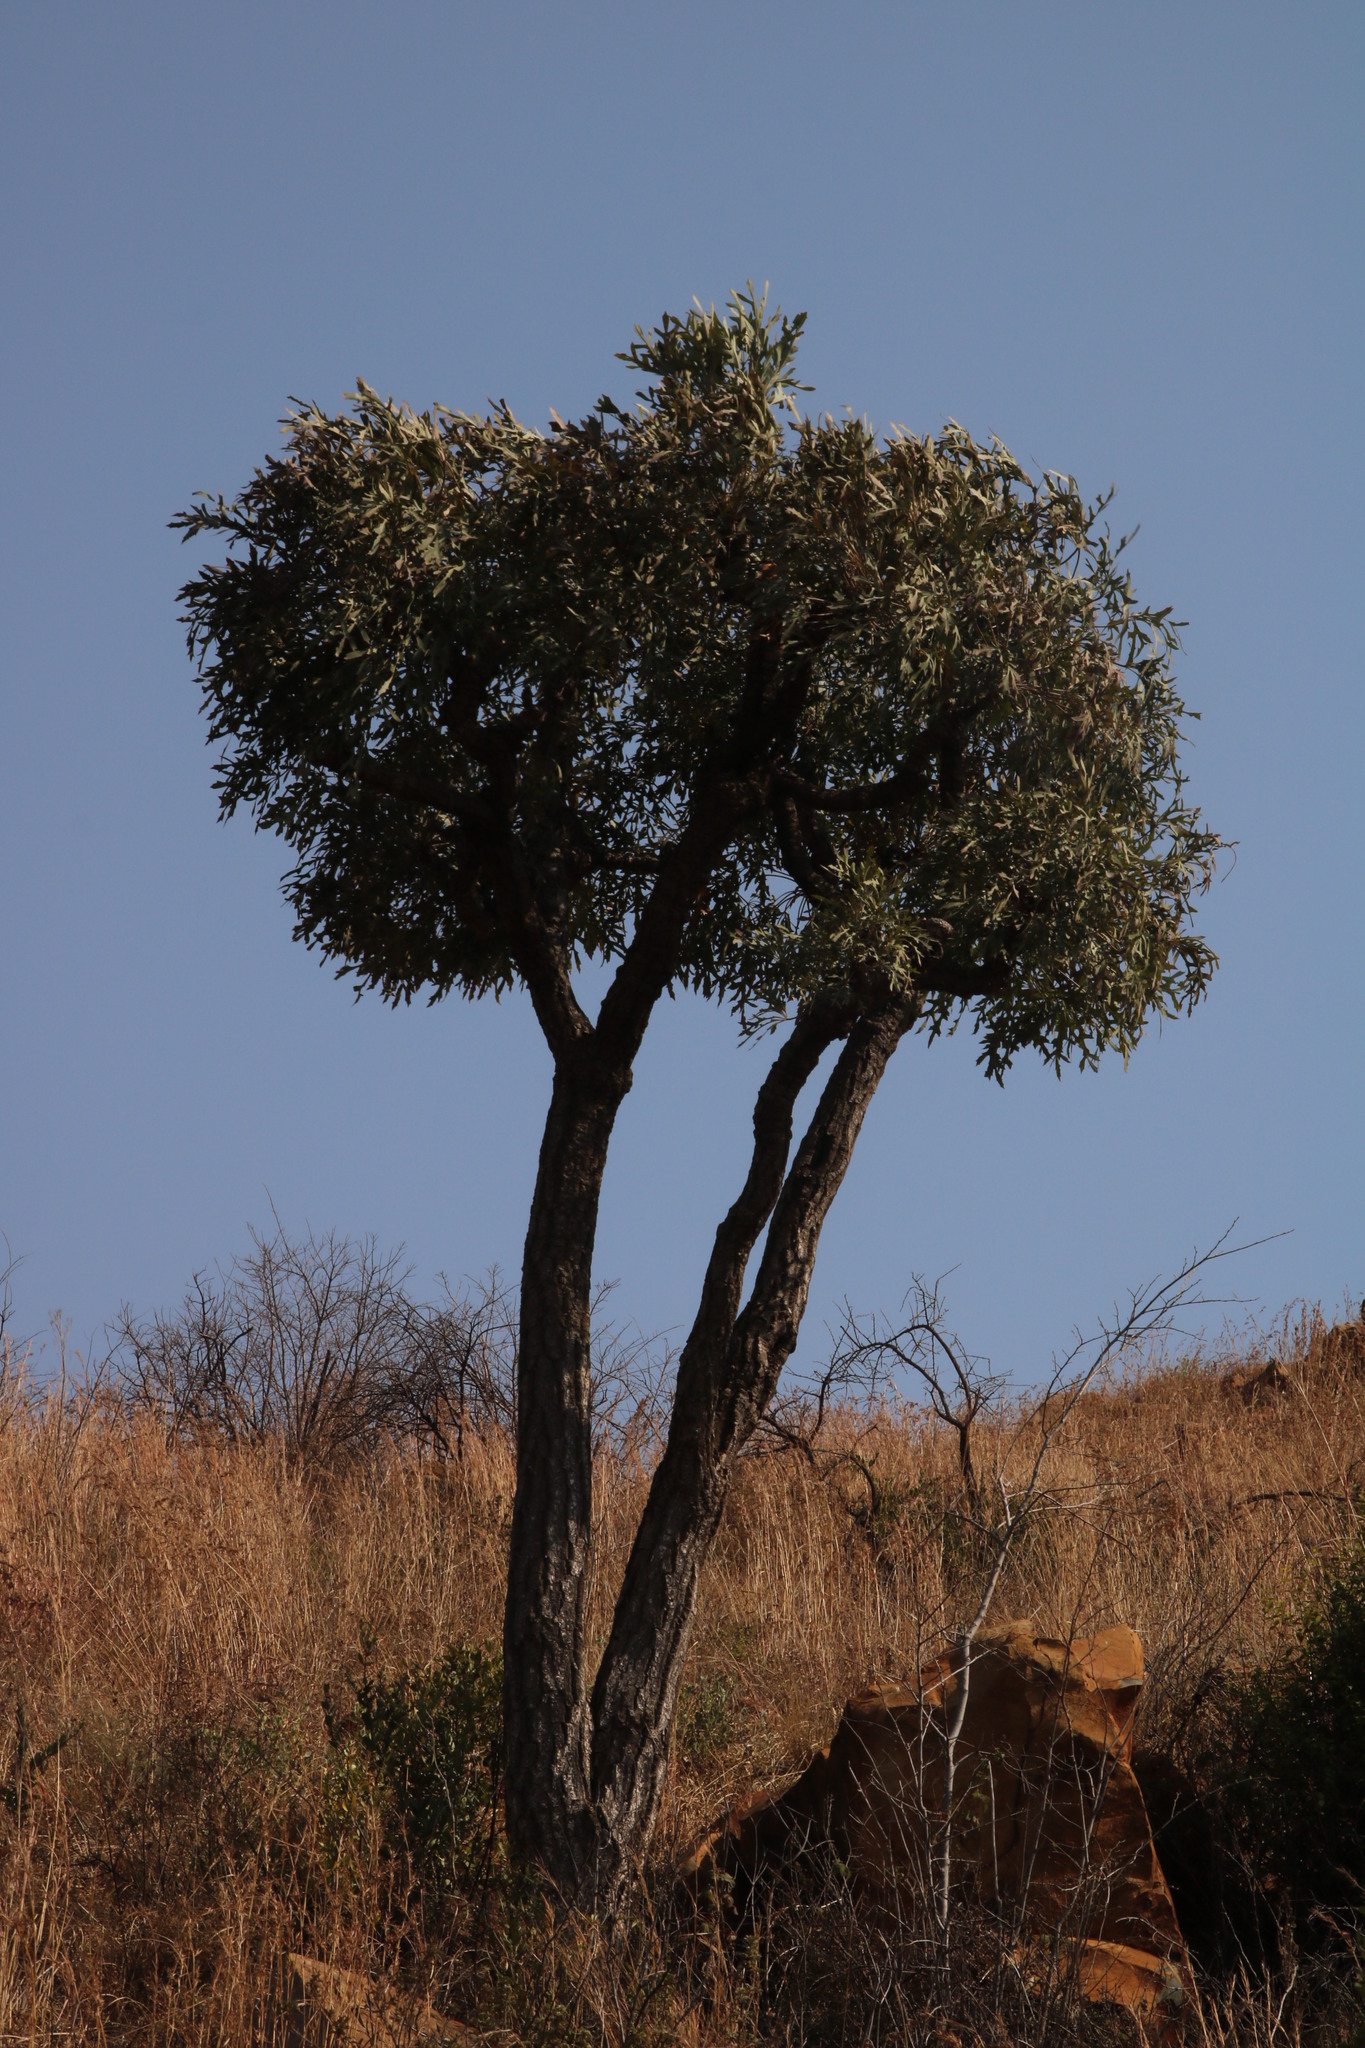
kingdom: Plantae
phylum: Tracheophyta
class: Magnoliopsida
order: Apiales
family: Araliaceae
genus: Cussonia
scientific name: Cussonia paniculata
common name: Cabbagetree
